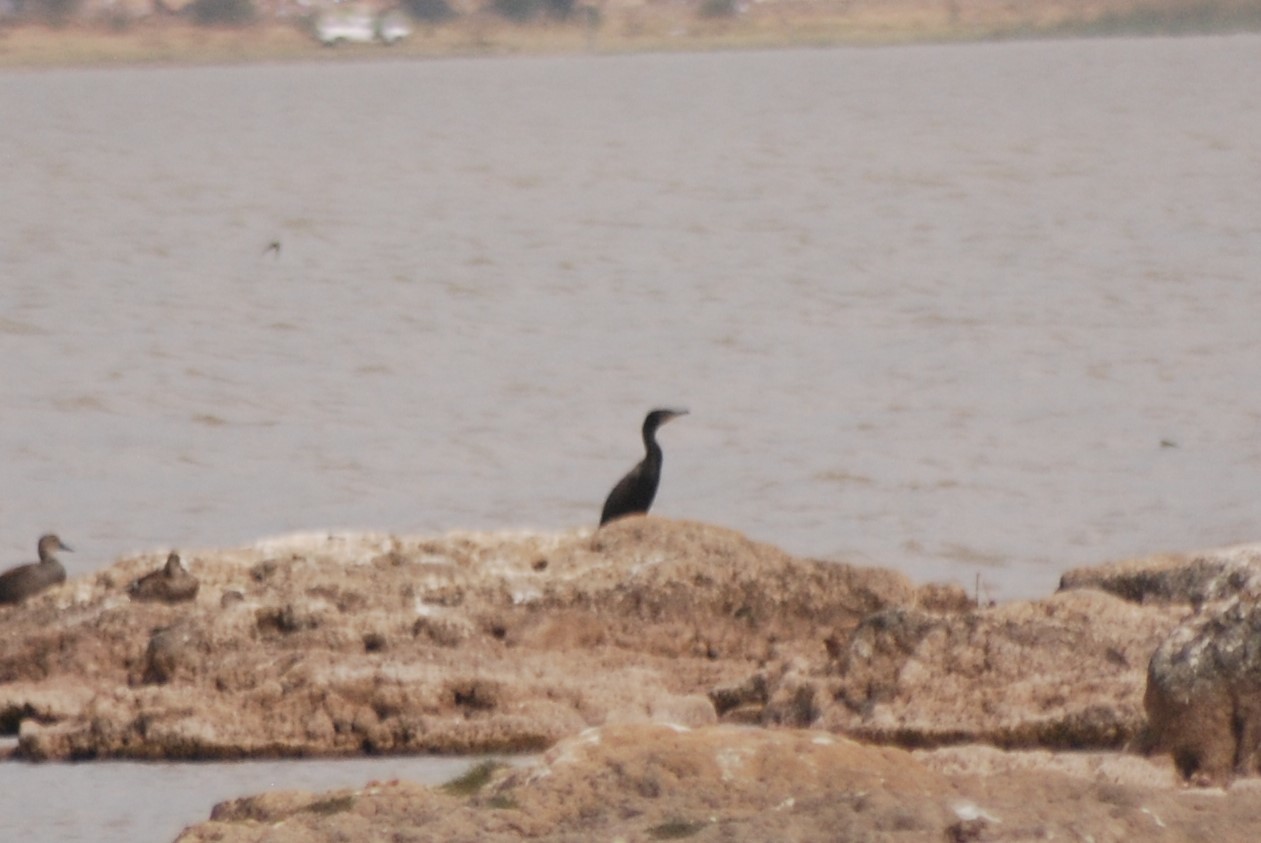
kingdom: Animalia
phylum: Chordata
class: Aves
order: Suliformes
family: Phalacrocoracidae
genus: Phalacrocorax
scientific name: Phalacrocorax brasilianus
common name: Neotropic cormorant
